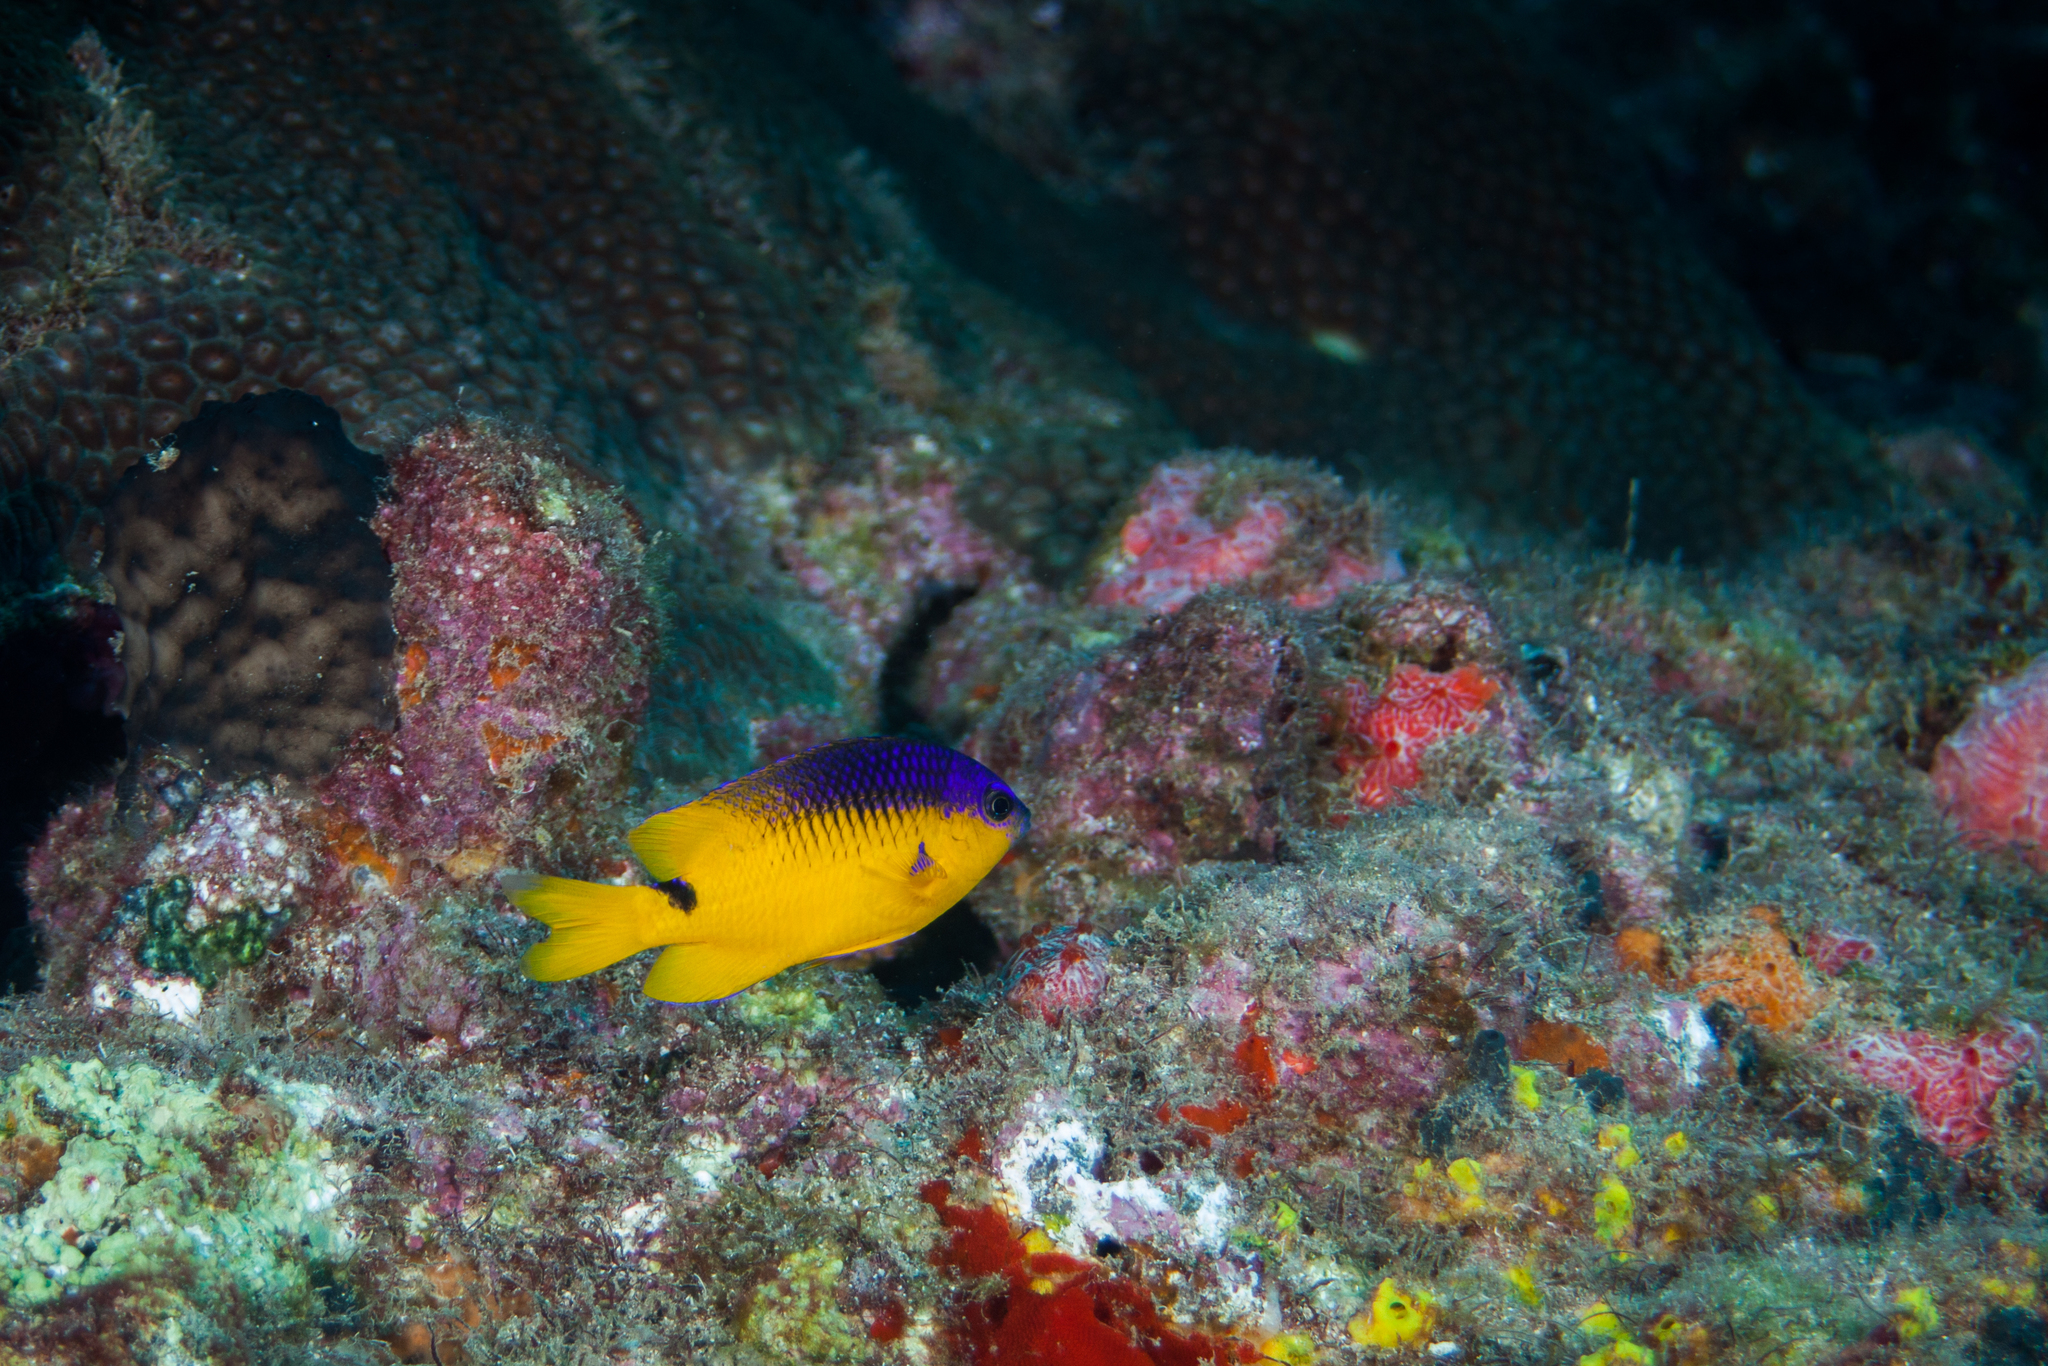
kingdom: Animalia
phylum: Chordata
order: Perciformes
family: Pomacentridae
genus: Stegastes
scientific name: Stegastes rocasensis
